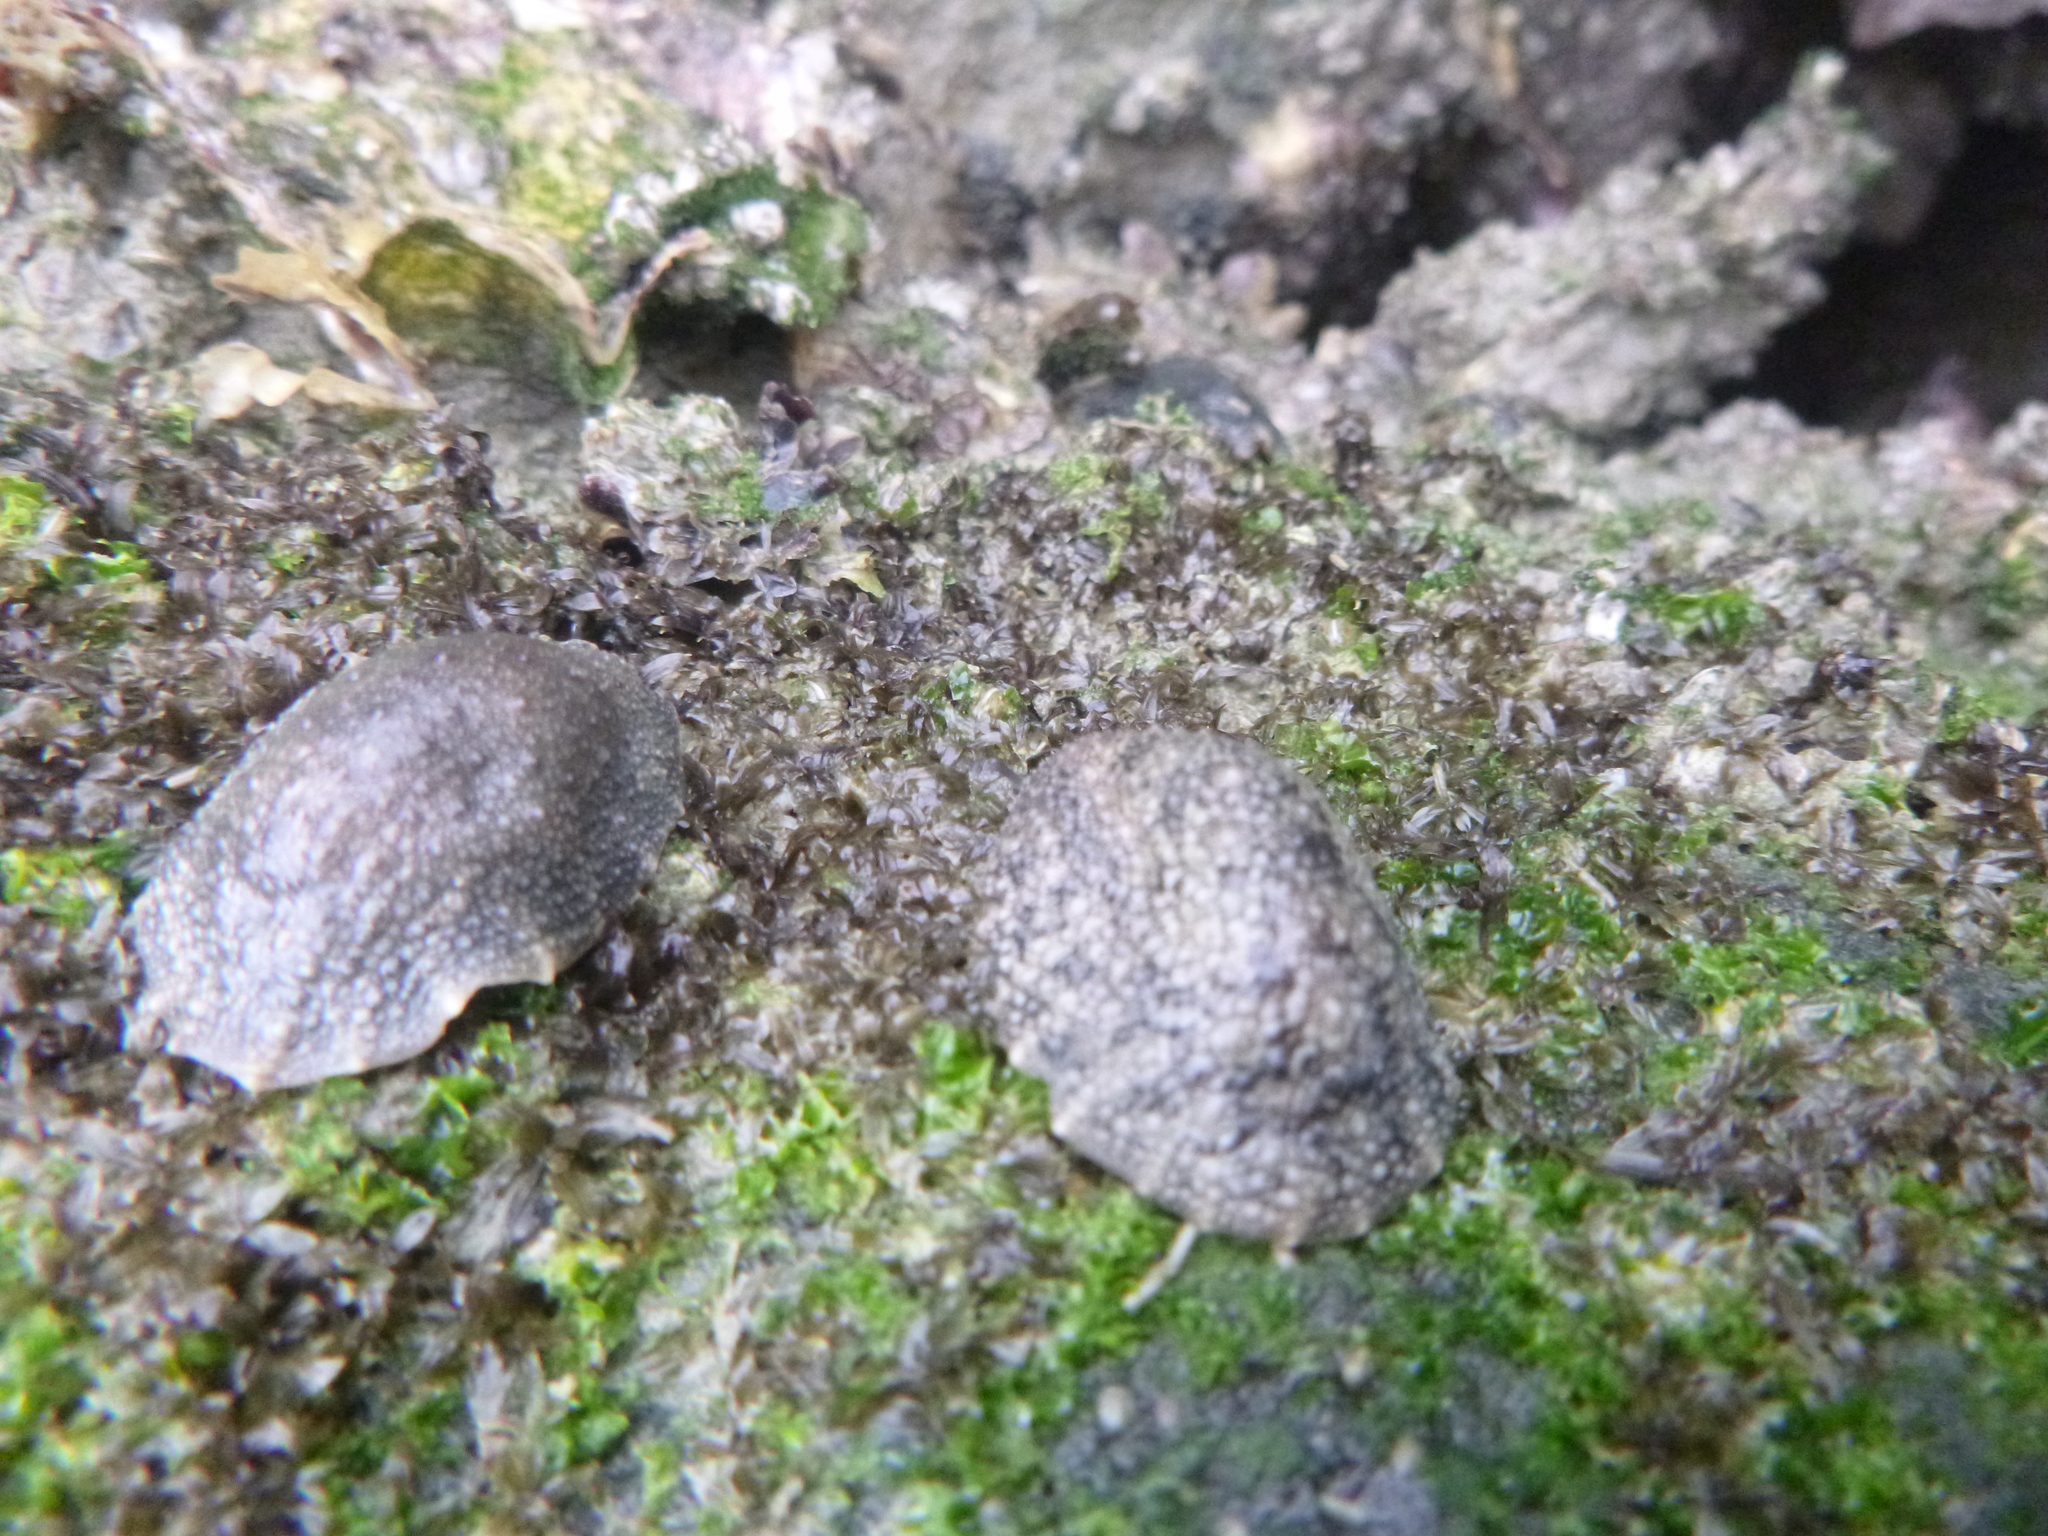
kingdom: Animalia
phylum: Mollusca
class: Gastropoda
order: Systellommatophora
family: Onchidiidae
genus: Onchidella
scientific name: Onchidella nigricans
